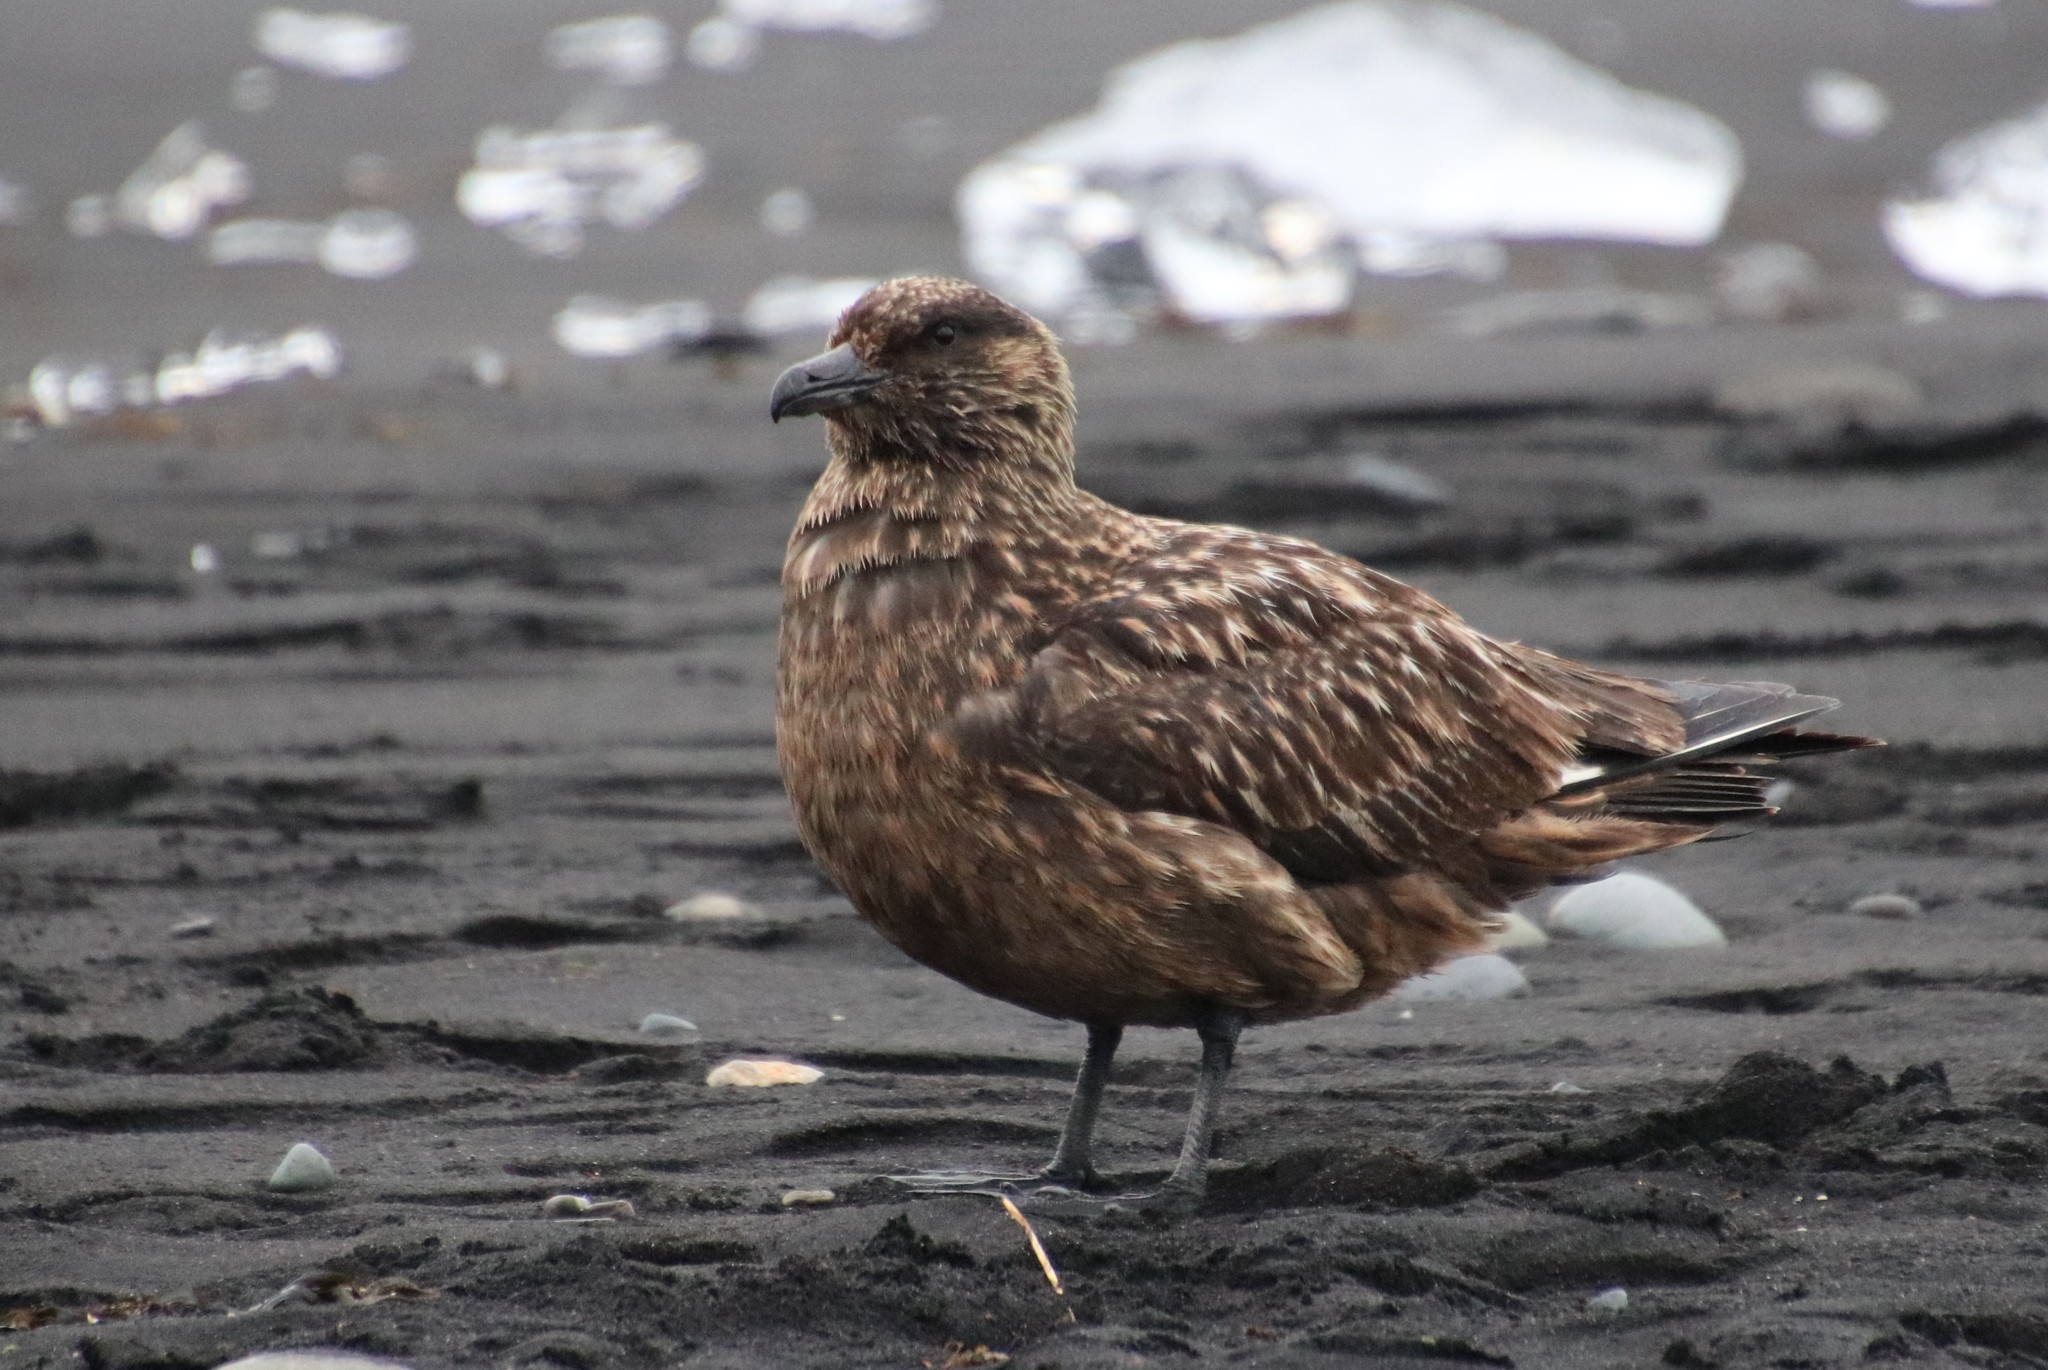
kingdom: Animalia
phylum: Chordata
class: Aves
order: Charadriiformes
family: Stercorariidae
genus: Stercorarius
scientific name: Stercorarius skua
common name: Great skua
